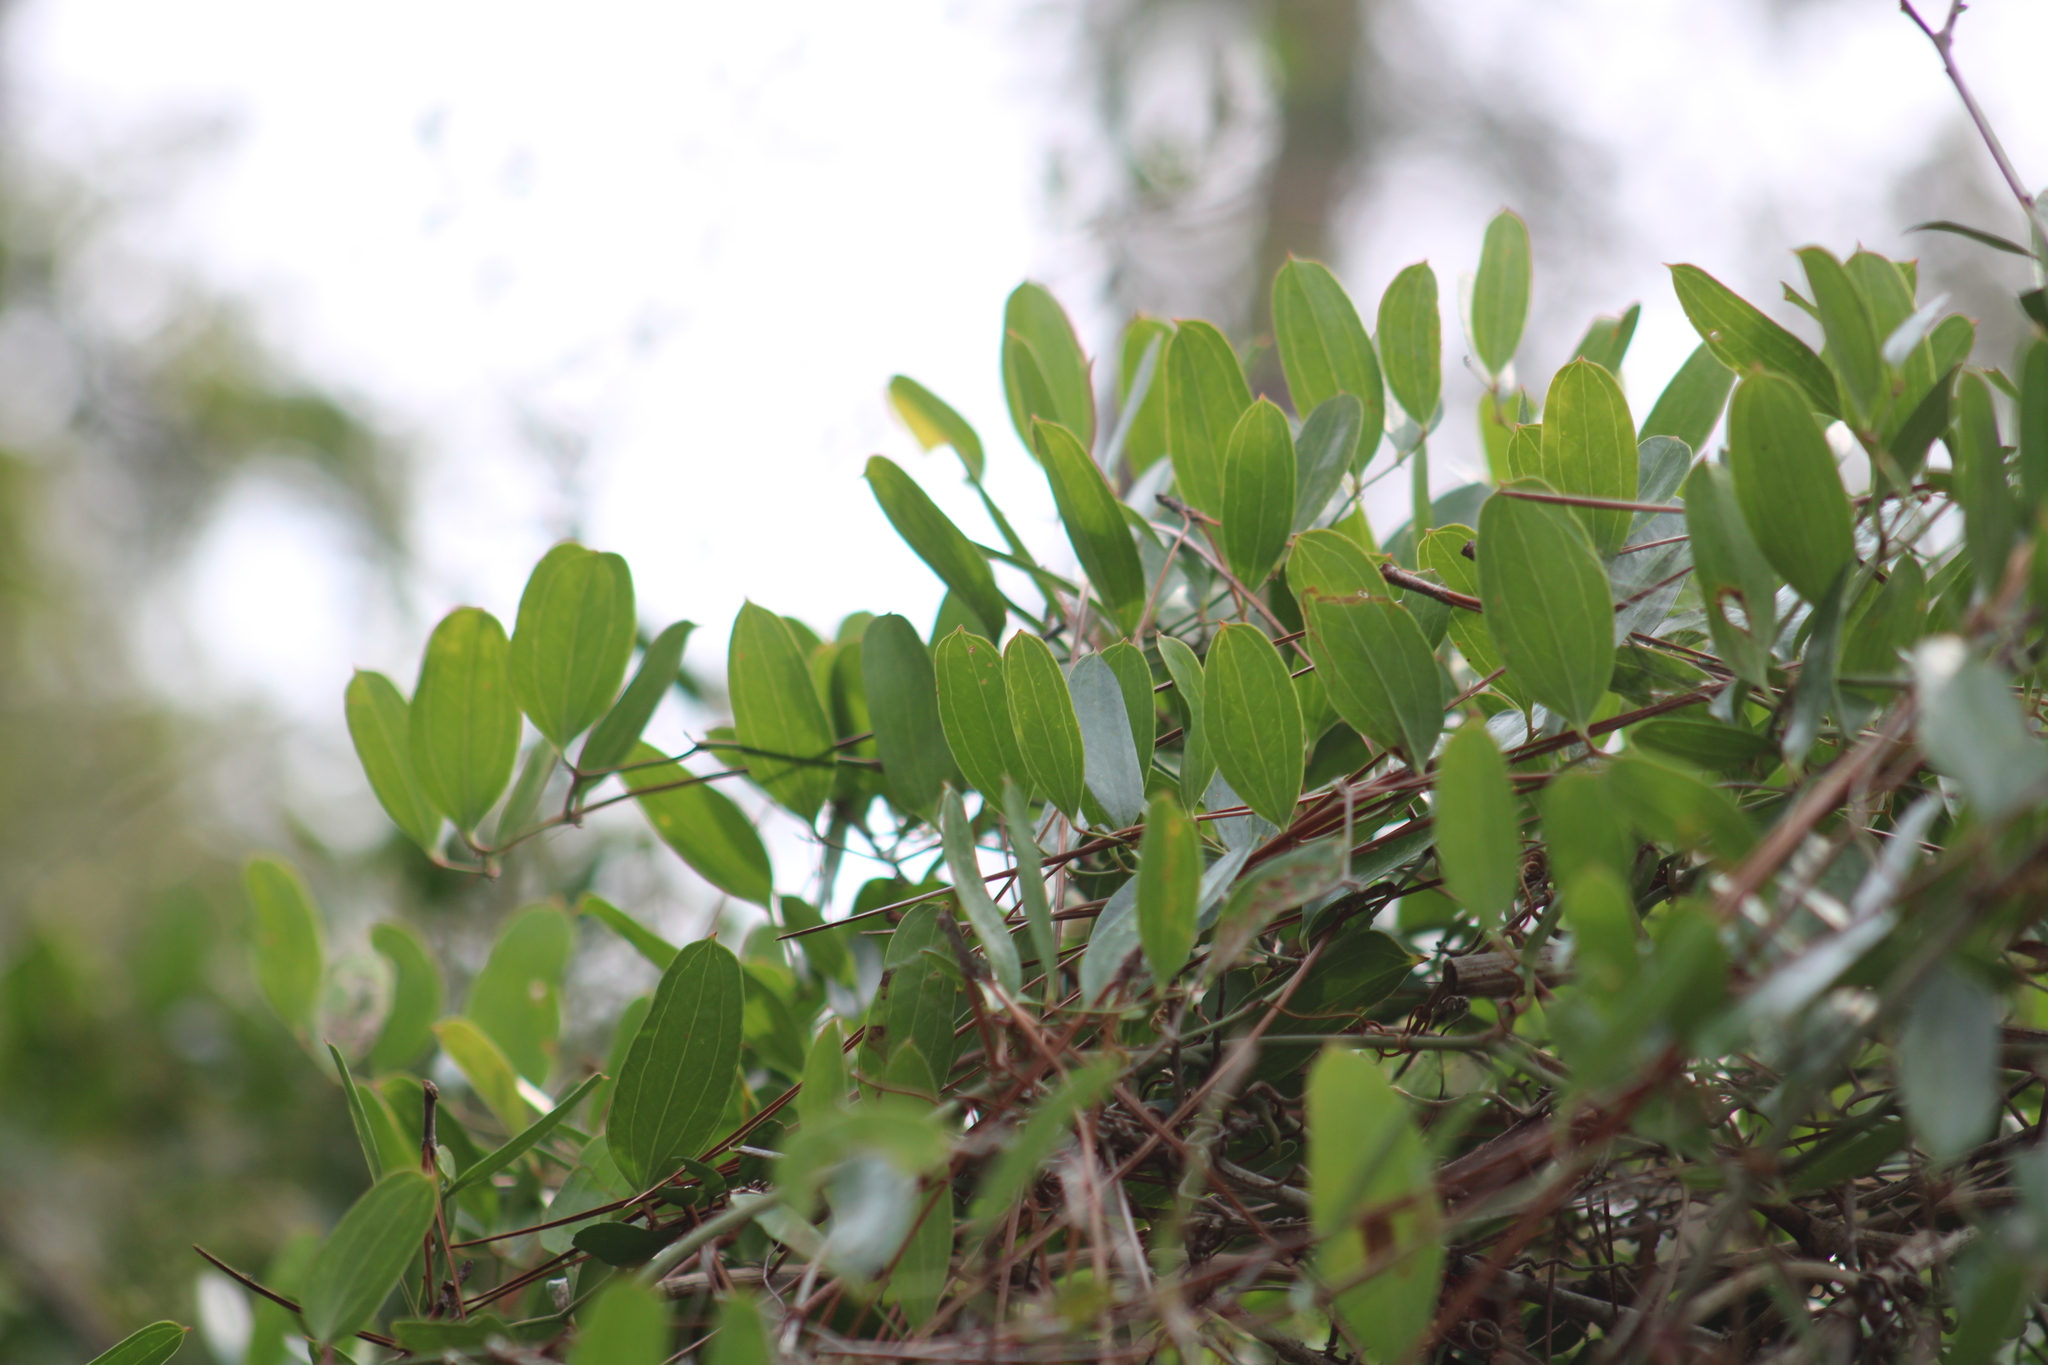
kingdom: Plantae
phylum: Tracheophyta
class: Liliopsida
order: Liliales
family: Smilacaceae
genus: Smilax
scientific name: Smilax auriculata
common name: Wild bamboo
